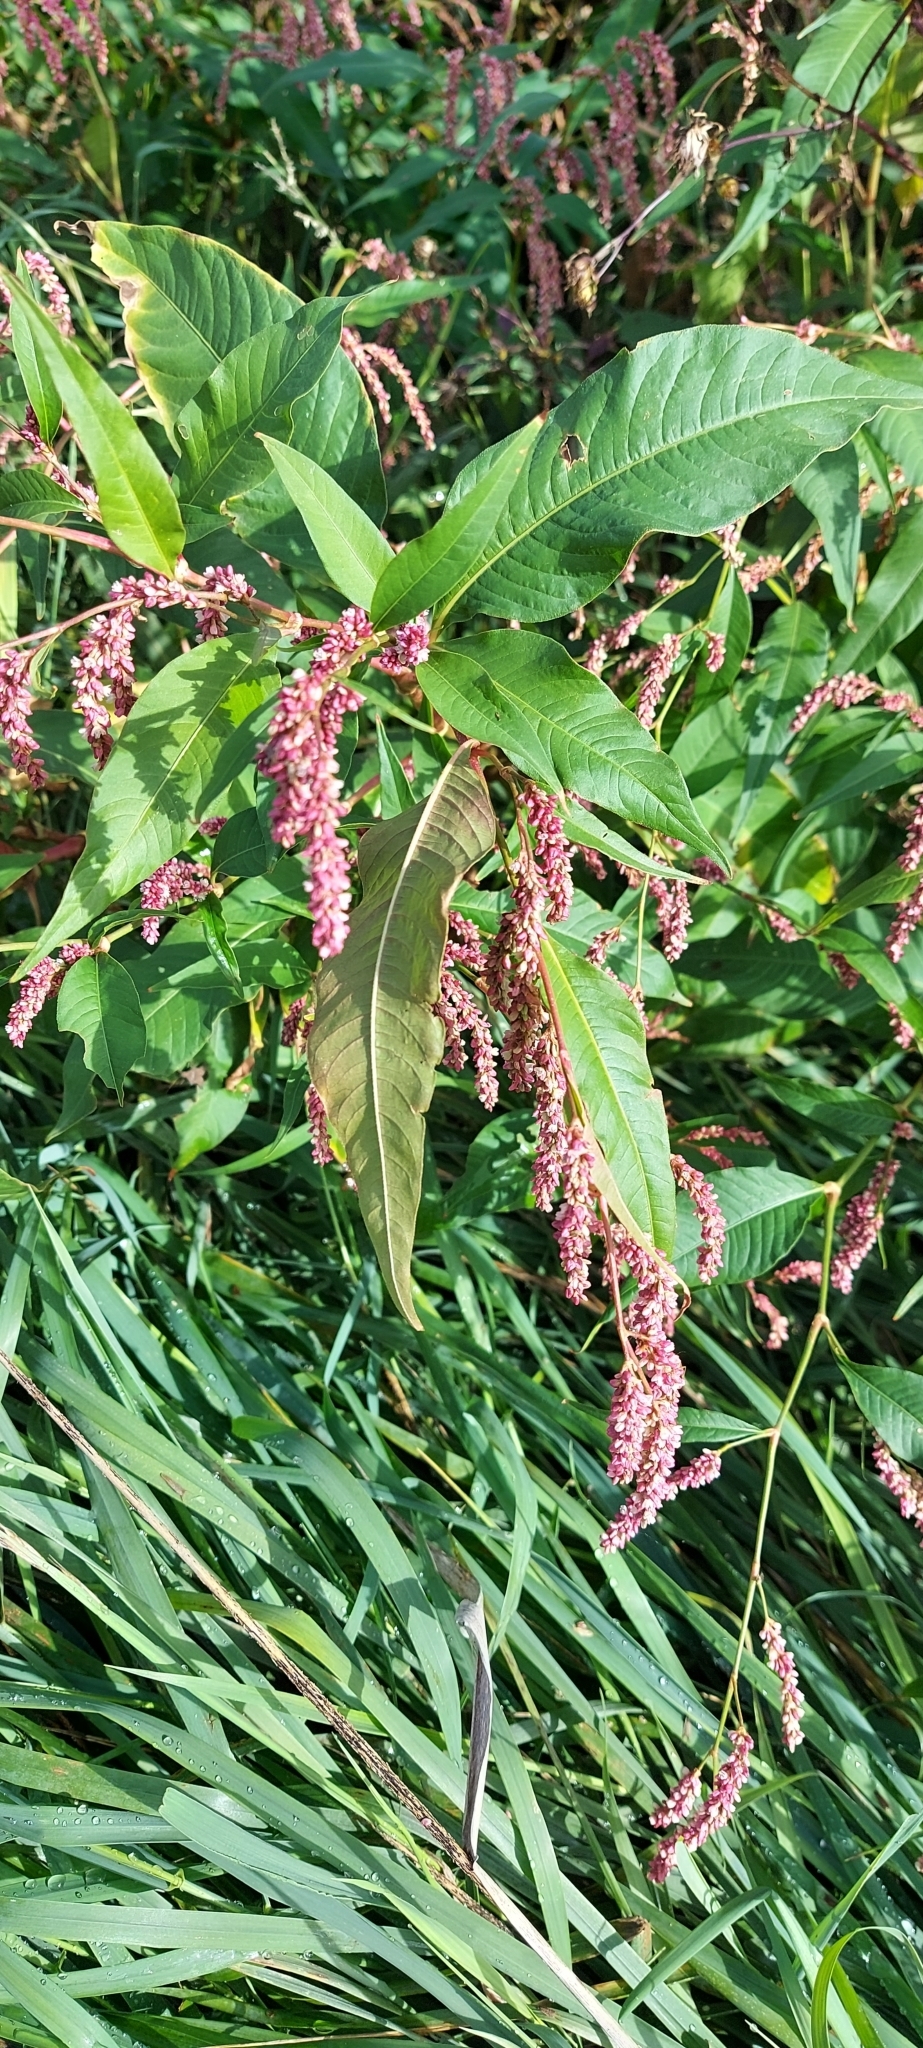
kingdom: Plantae
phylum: Tracheophyta
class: Magnoliopsida
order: Caryophyllales
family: Polygonaceae
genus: Persicaria
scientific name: Persicaria lapathifolia
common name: Curlytop knotweed
